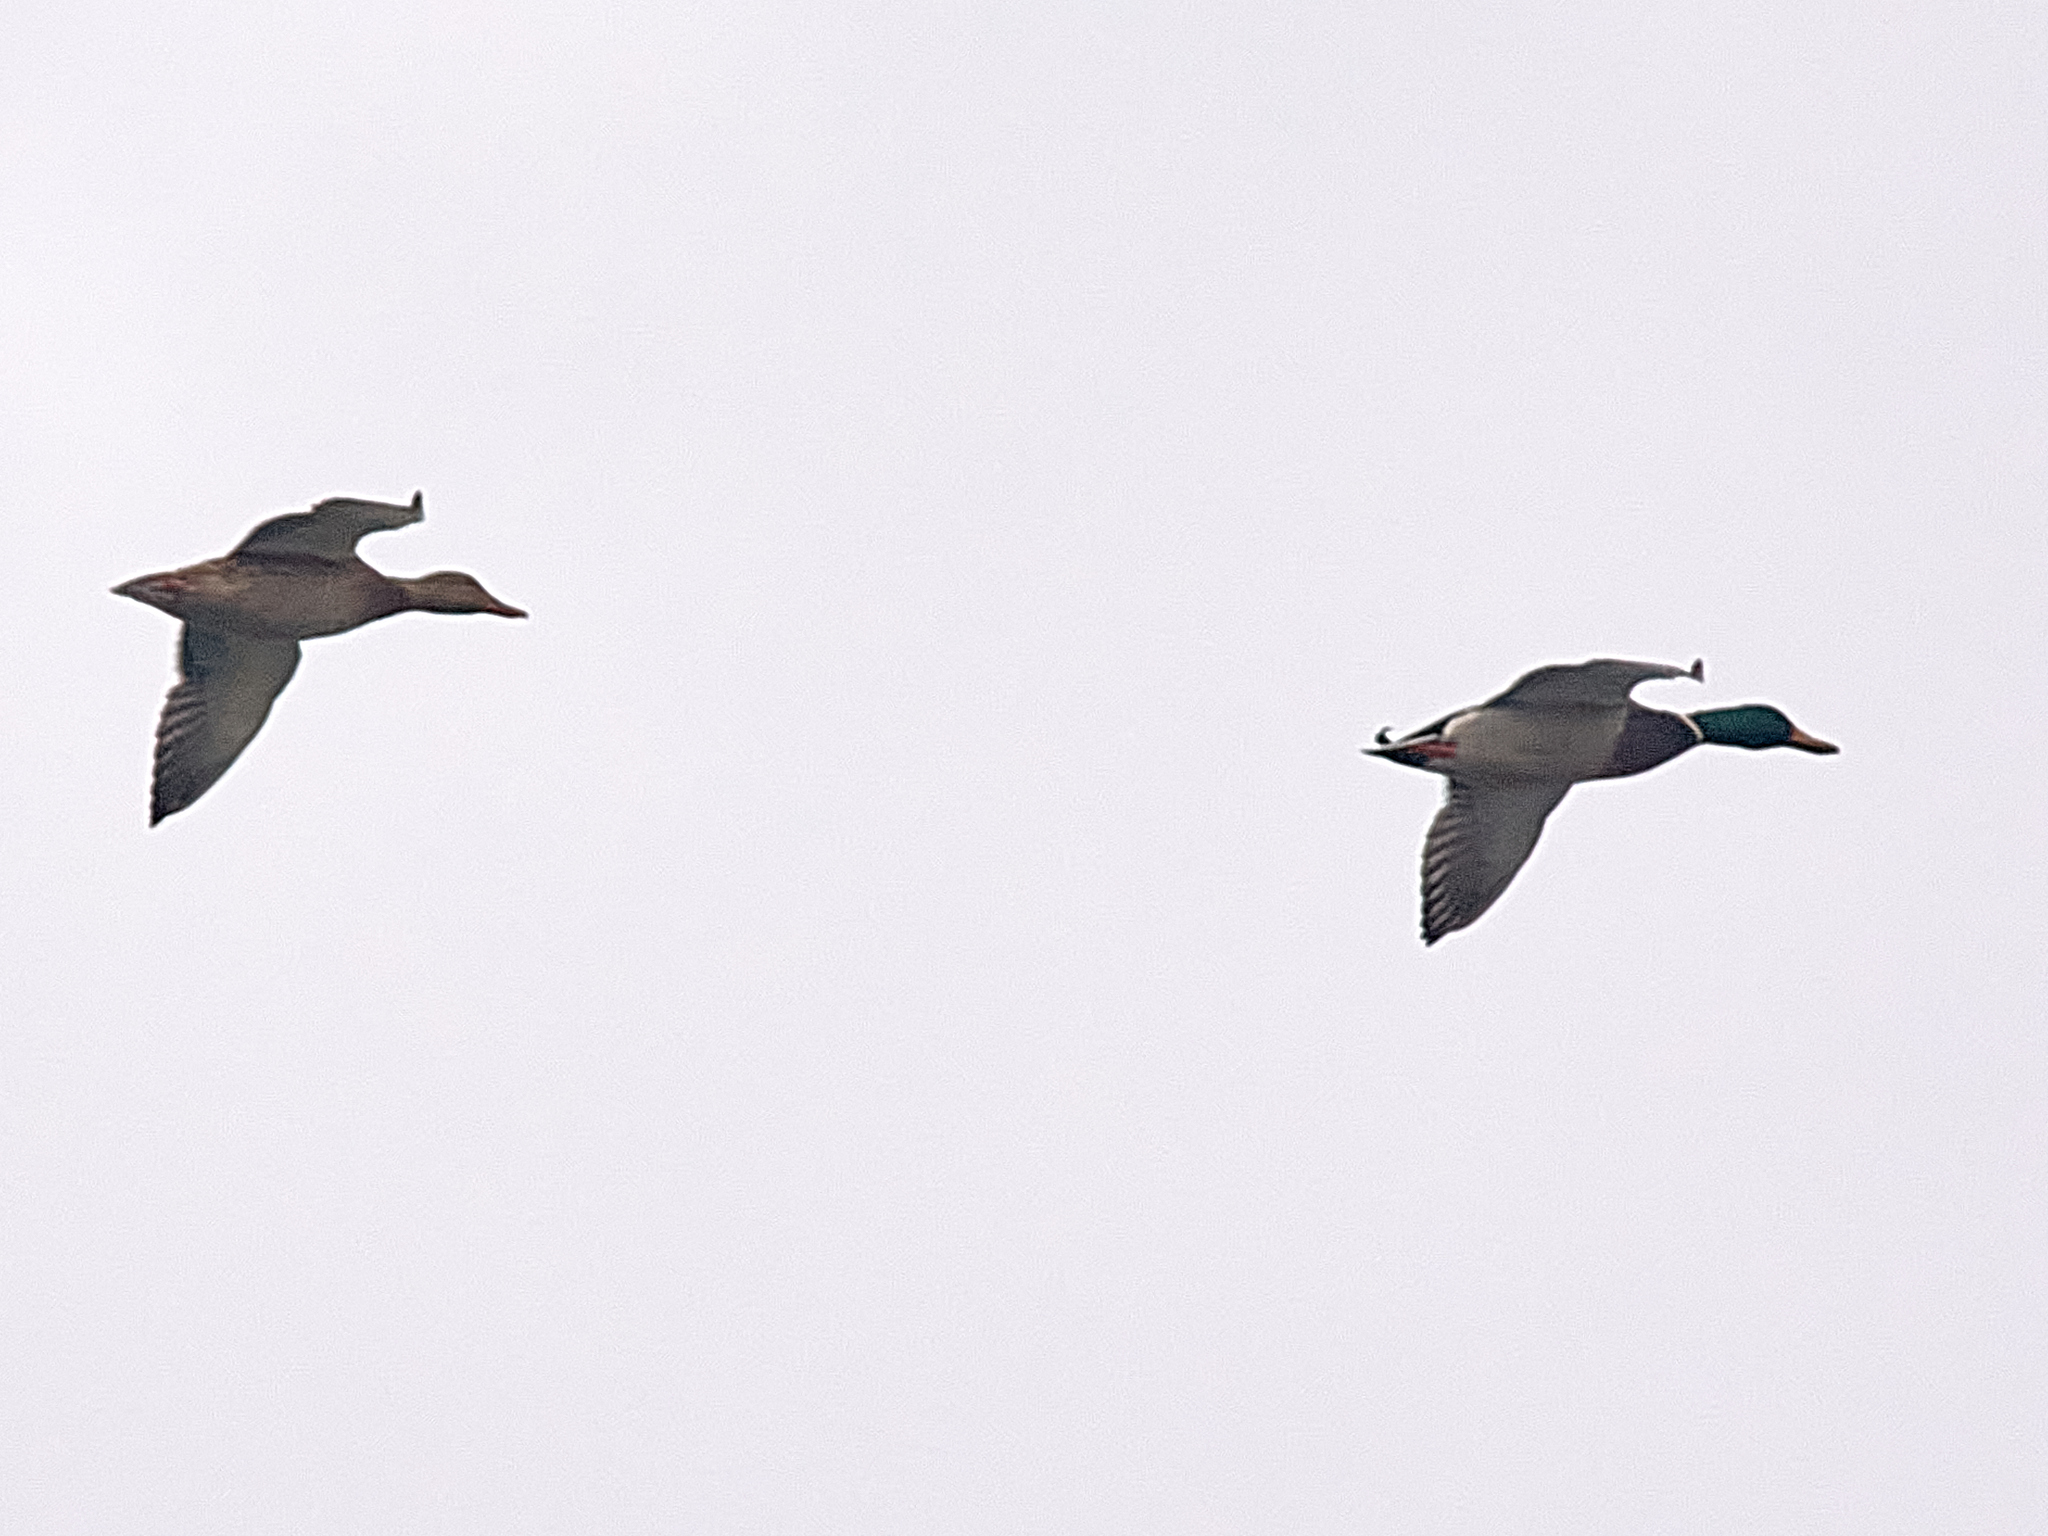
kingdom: Animalia
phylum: Chordata
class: Aves
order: Anseriformes
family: Anatidae
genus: Anas
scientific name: Anas platyrhynchos
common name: Mallard
